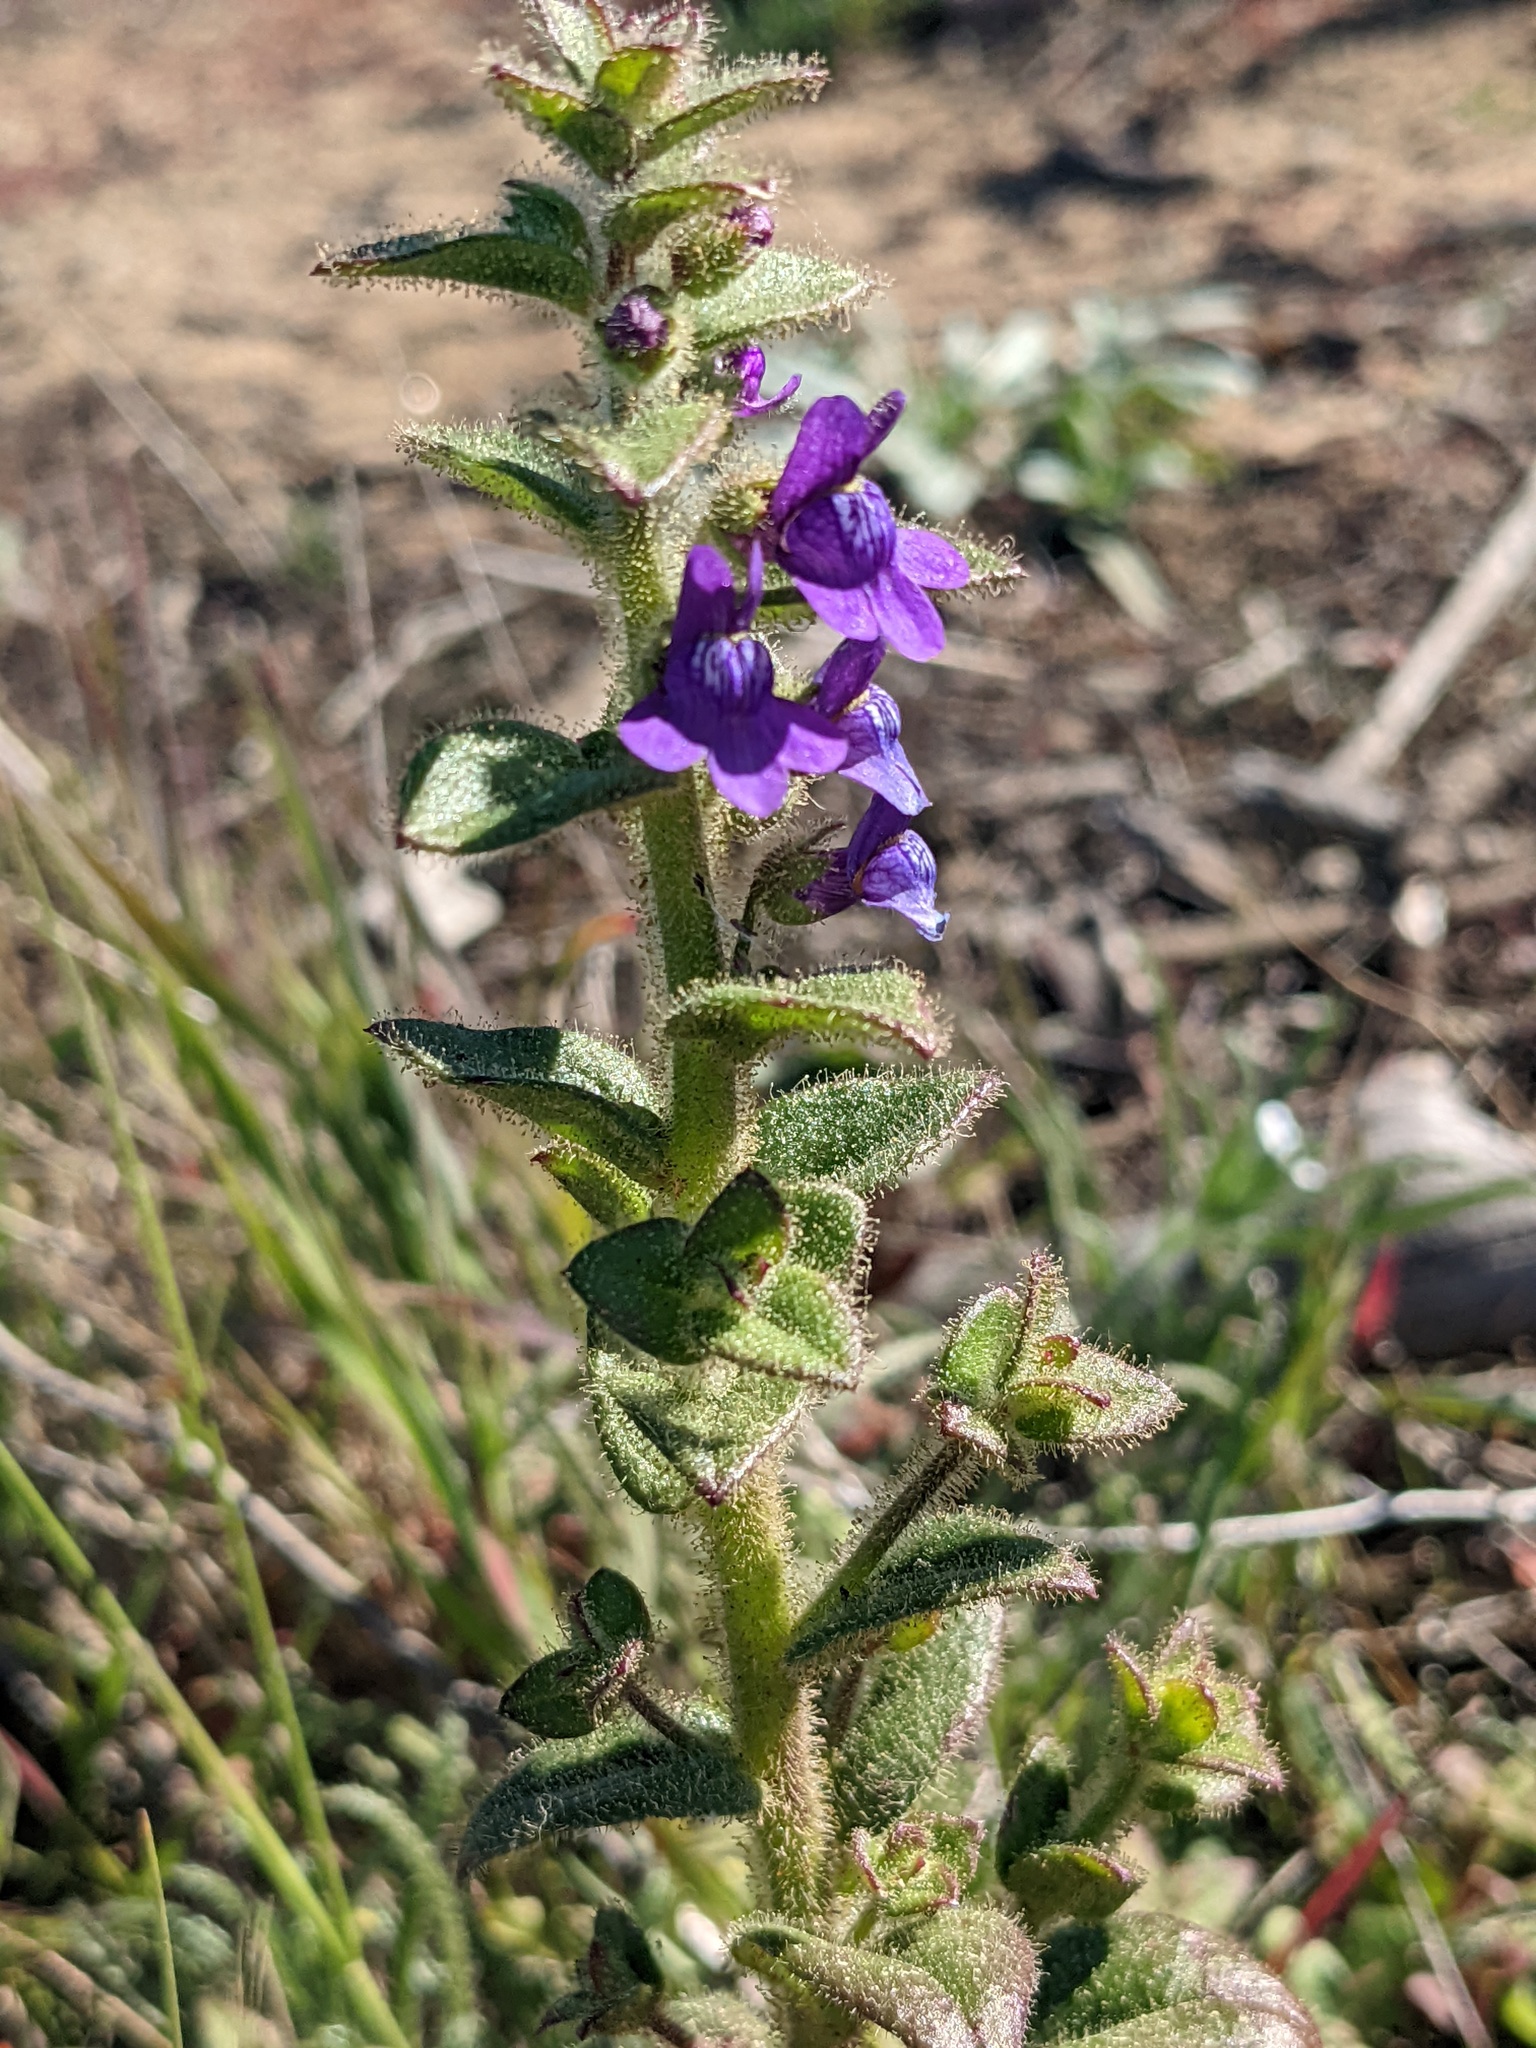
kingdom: Plantae
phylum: Tracheophyta
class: Magnoliopsida
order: Lamiales
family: Plantaginaceae
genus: Sairocarpus
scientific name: Sairocarpus nuttallianus
